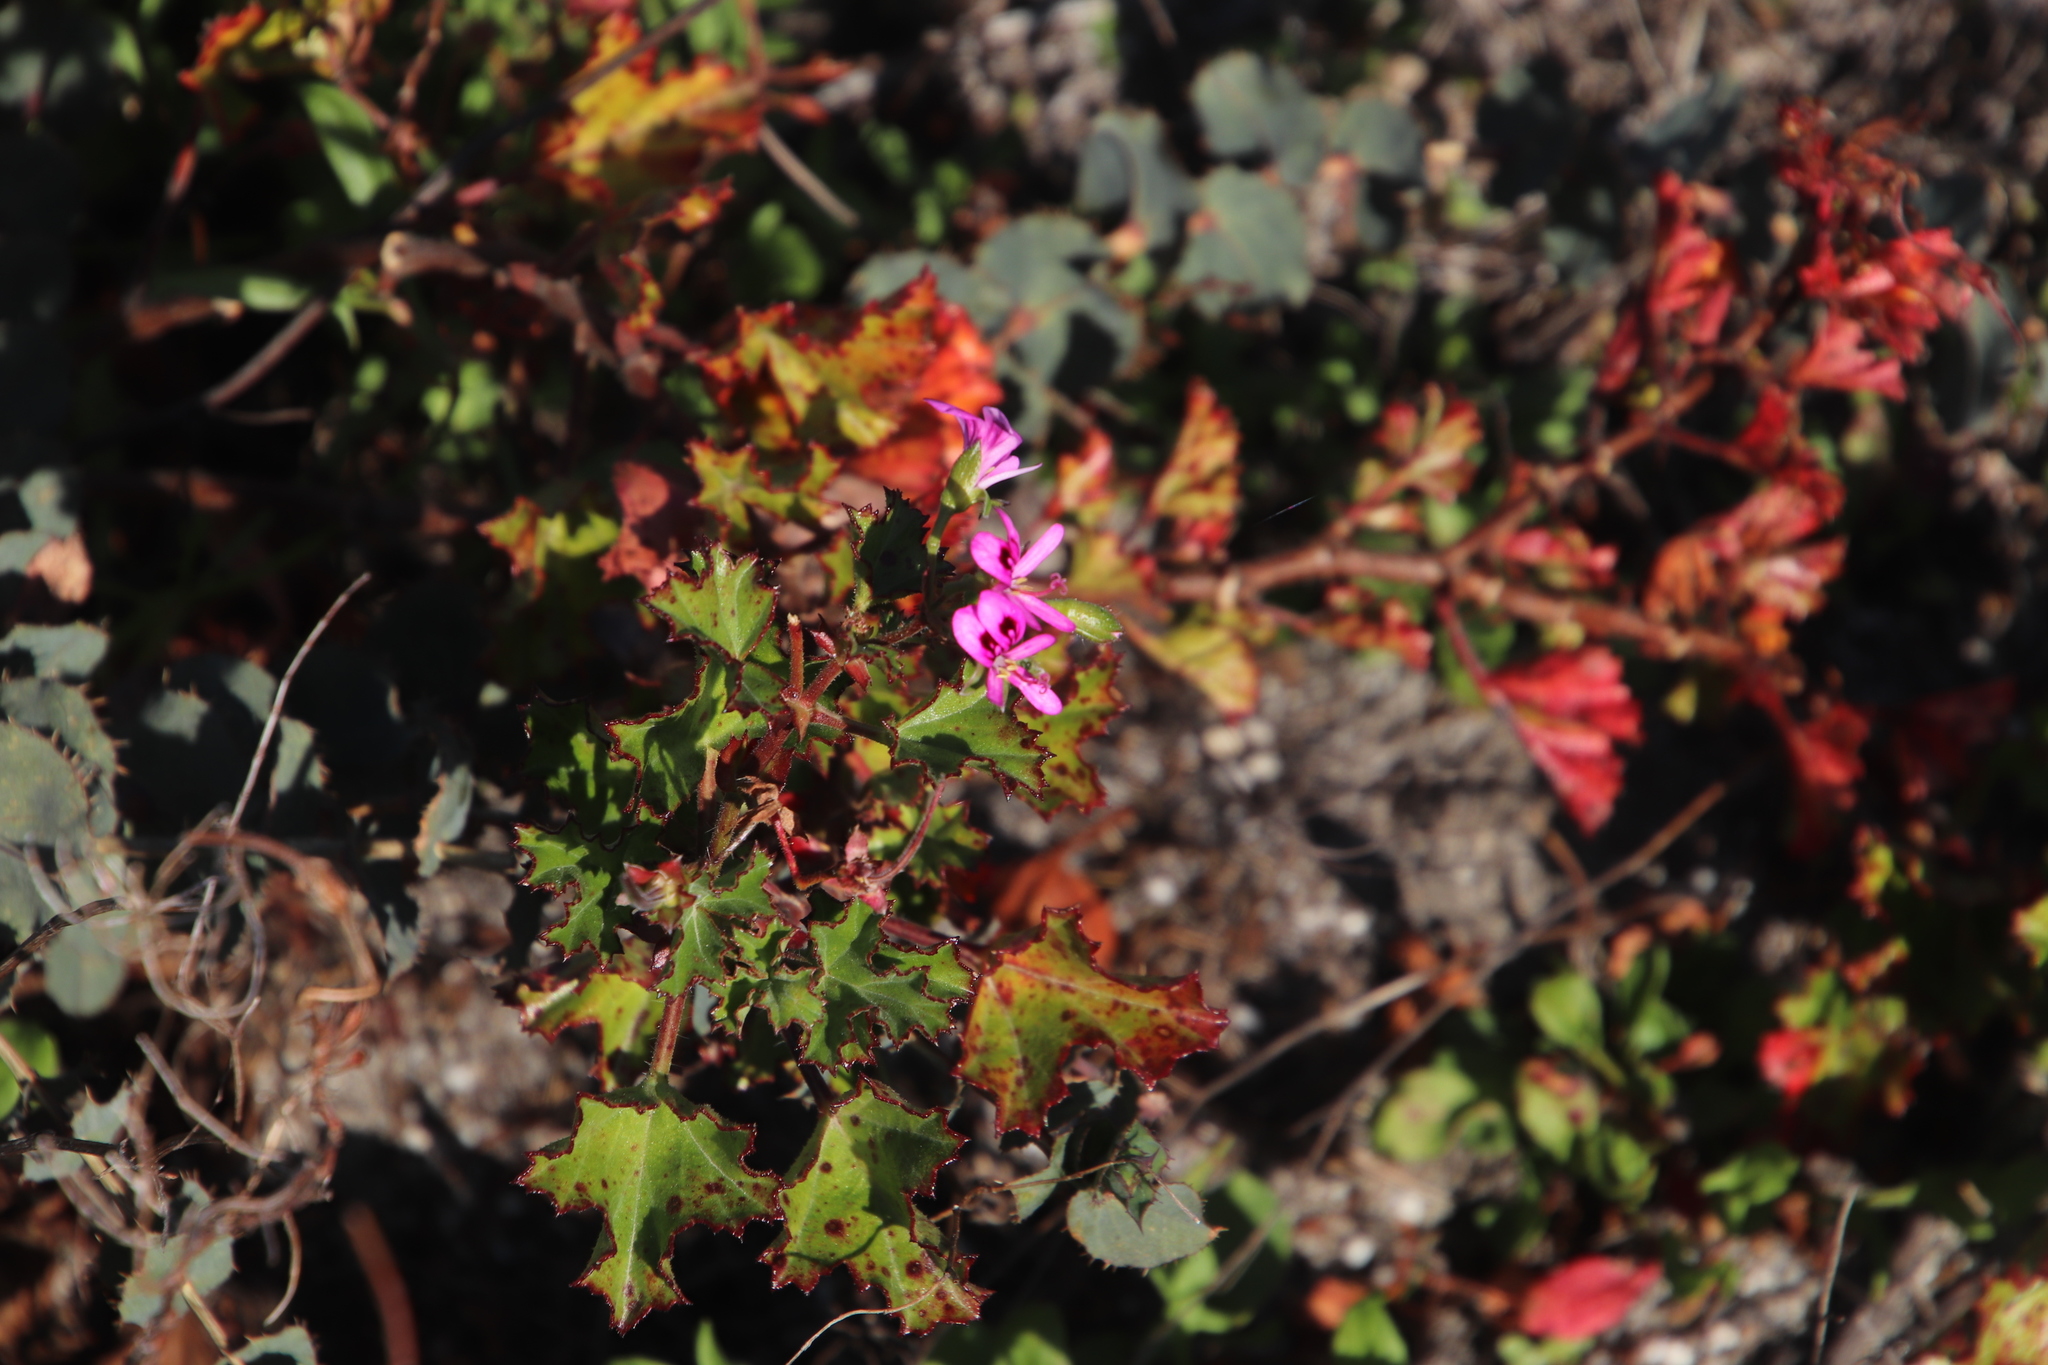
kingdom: Plantae
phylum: Tracheophyta
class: Magnoliopsida
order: Geraniales
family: Geraniaceae
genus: Pelargonium
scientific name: Pelargonium sublignosum
